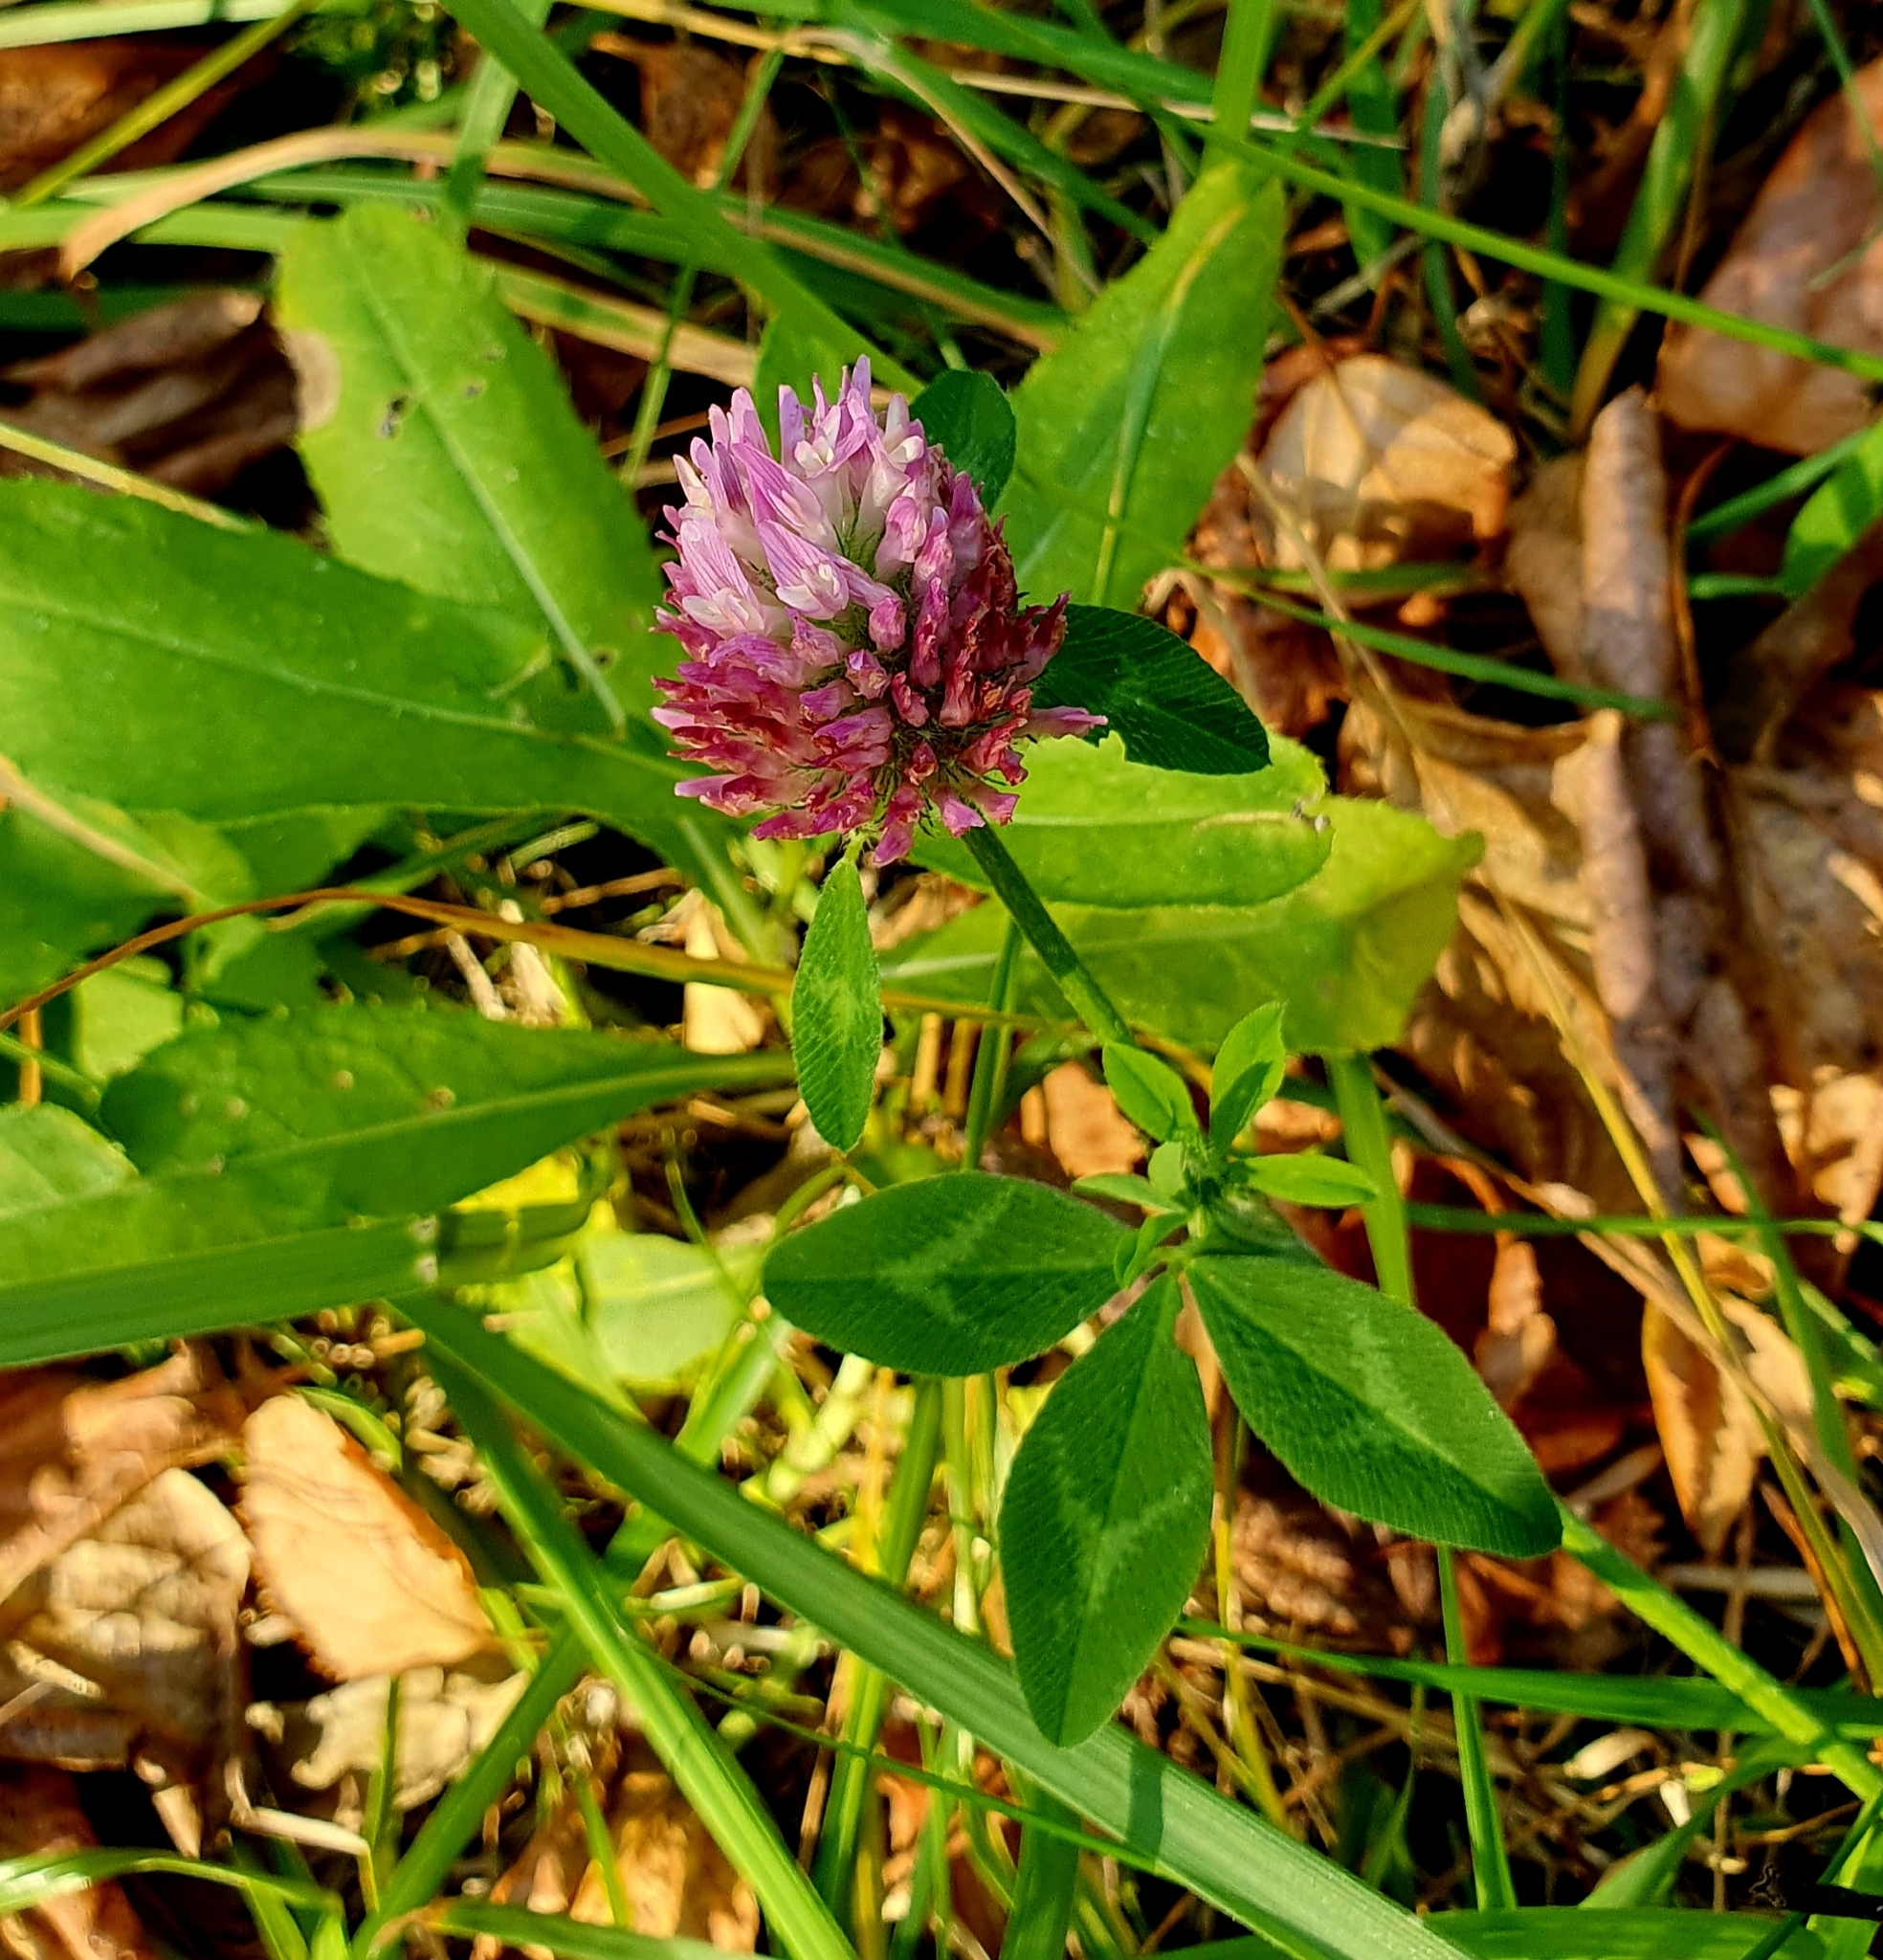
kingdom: Plantae
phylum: Tracheophyta
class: Magnoliopsida
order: Fabales
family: Fabaceae
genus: Trifolium
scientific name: Trifolium pratense
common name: Red clover
